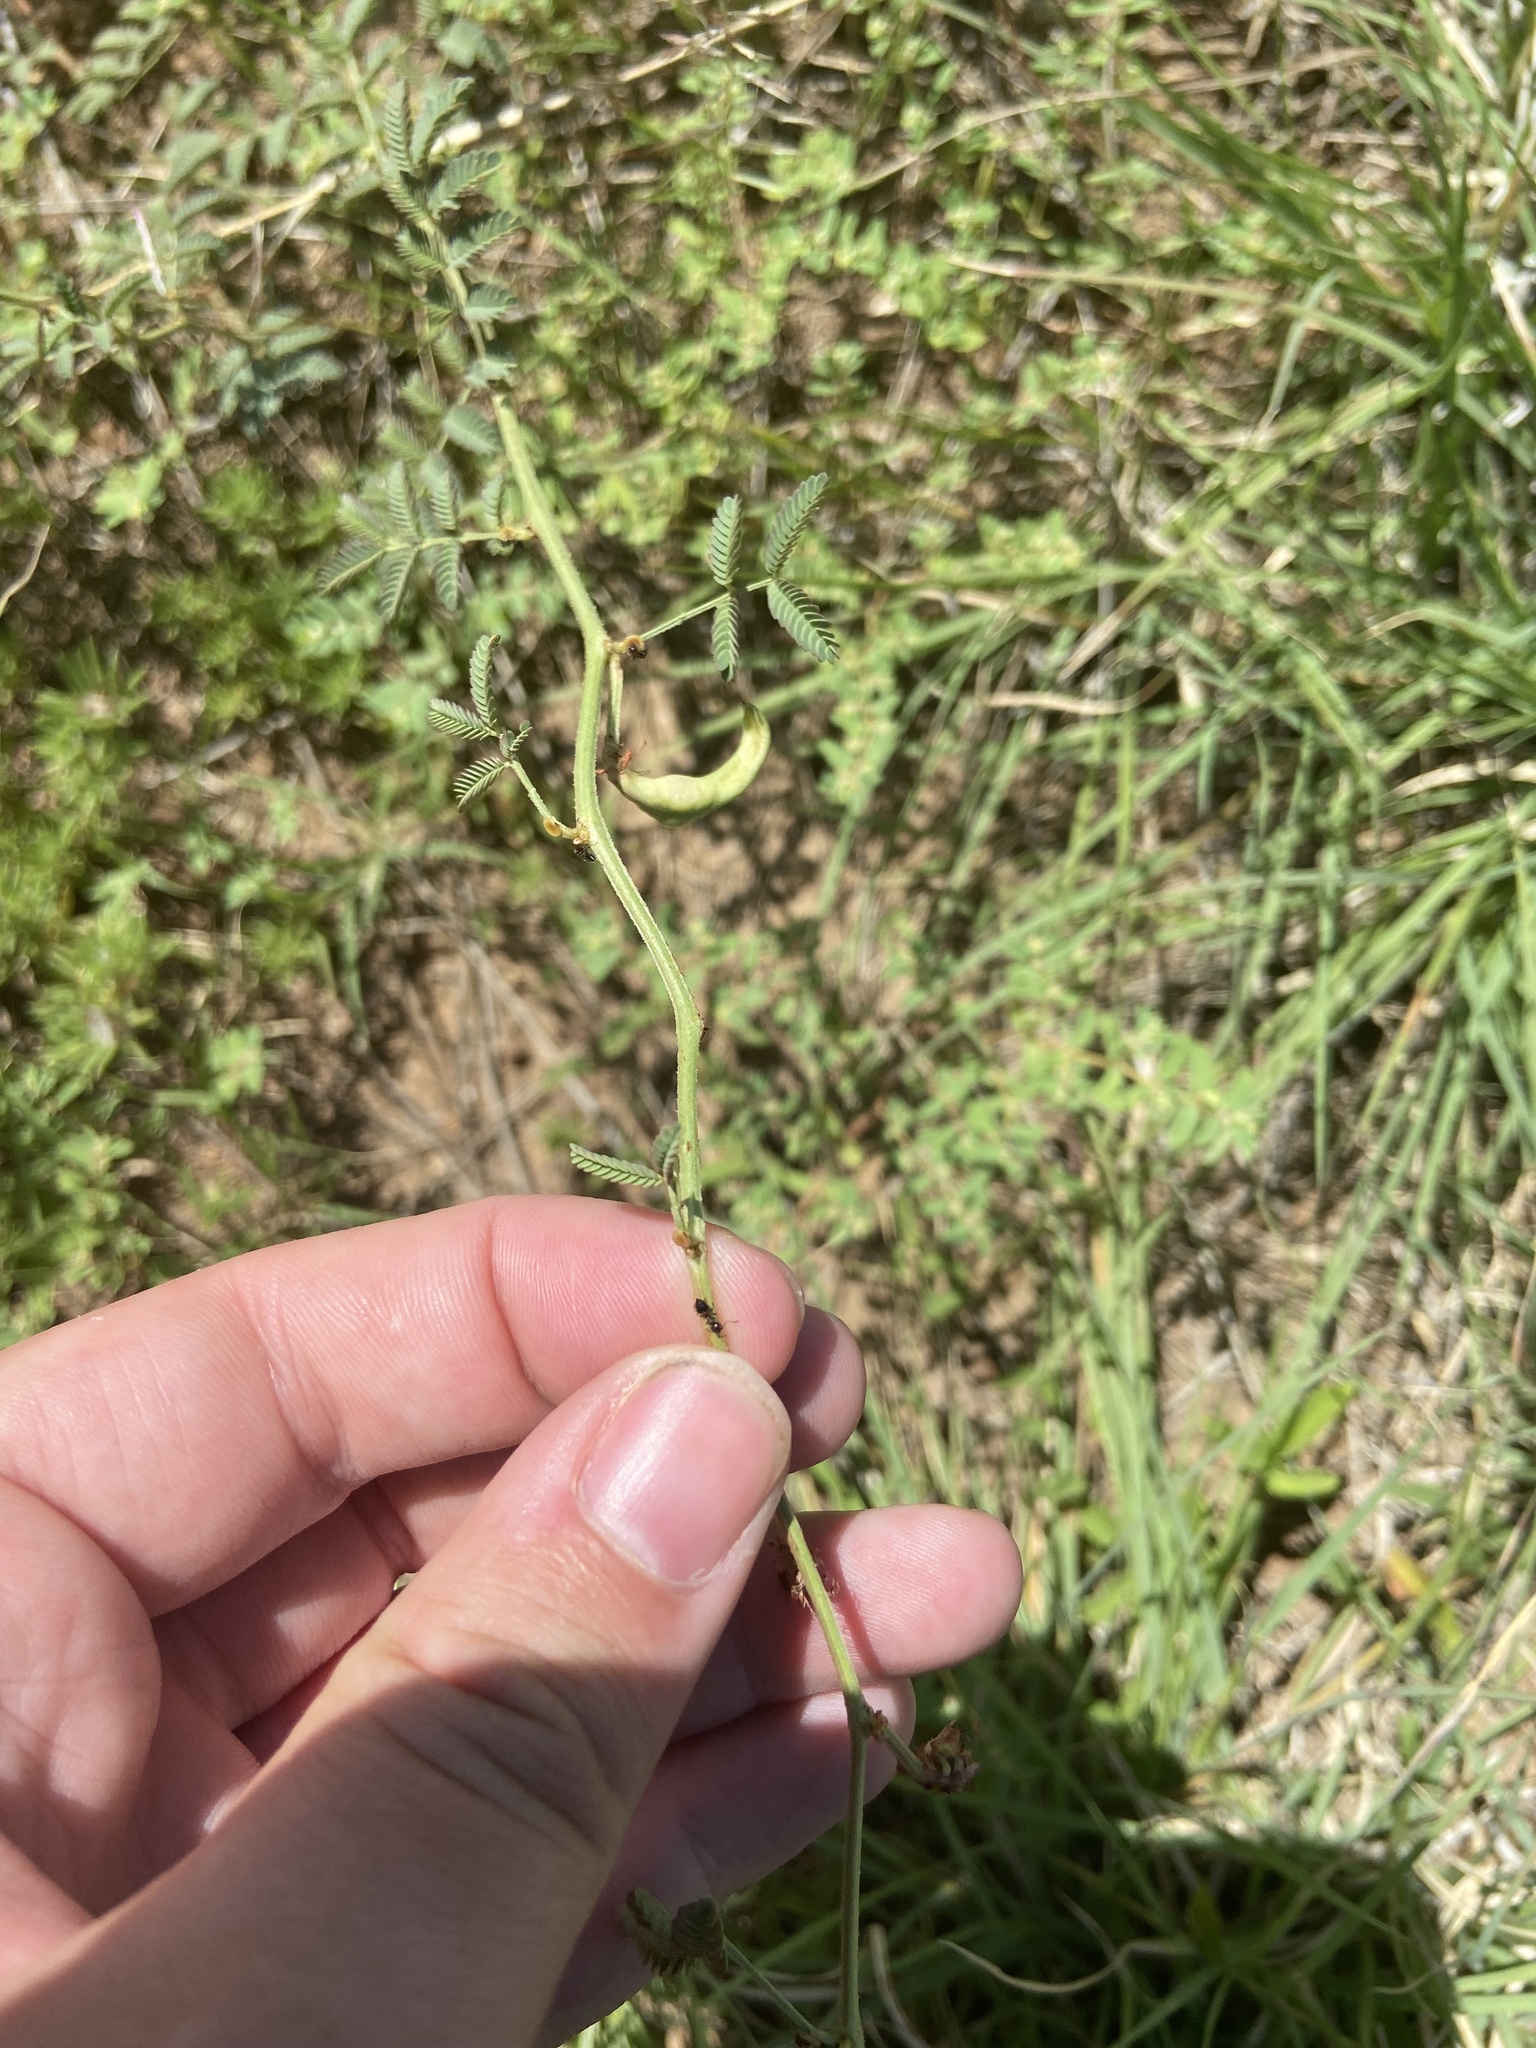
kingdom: Plantae
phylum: Tracheophyta
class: Magnoliopsida
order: Fabales
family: Fabaceae
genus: Desmanthus
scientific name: Desmanthus cooleyi
